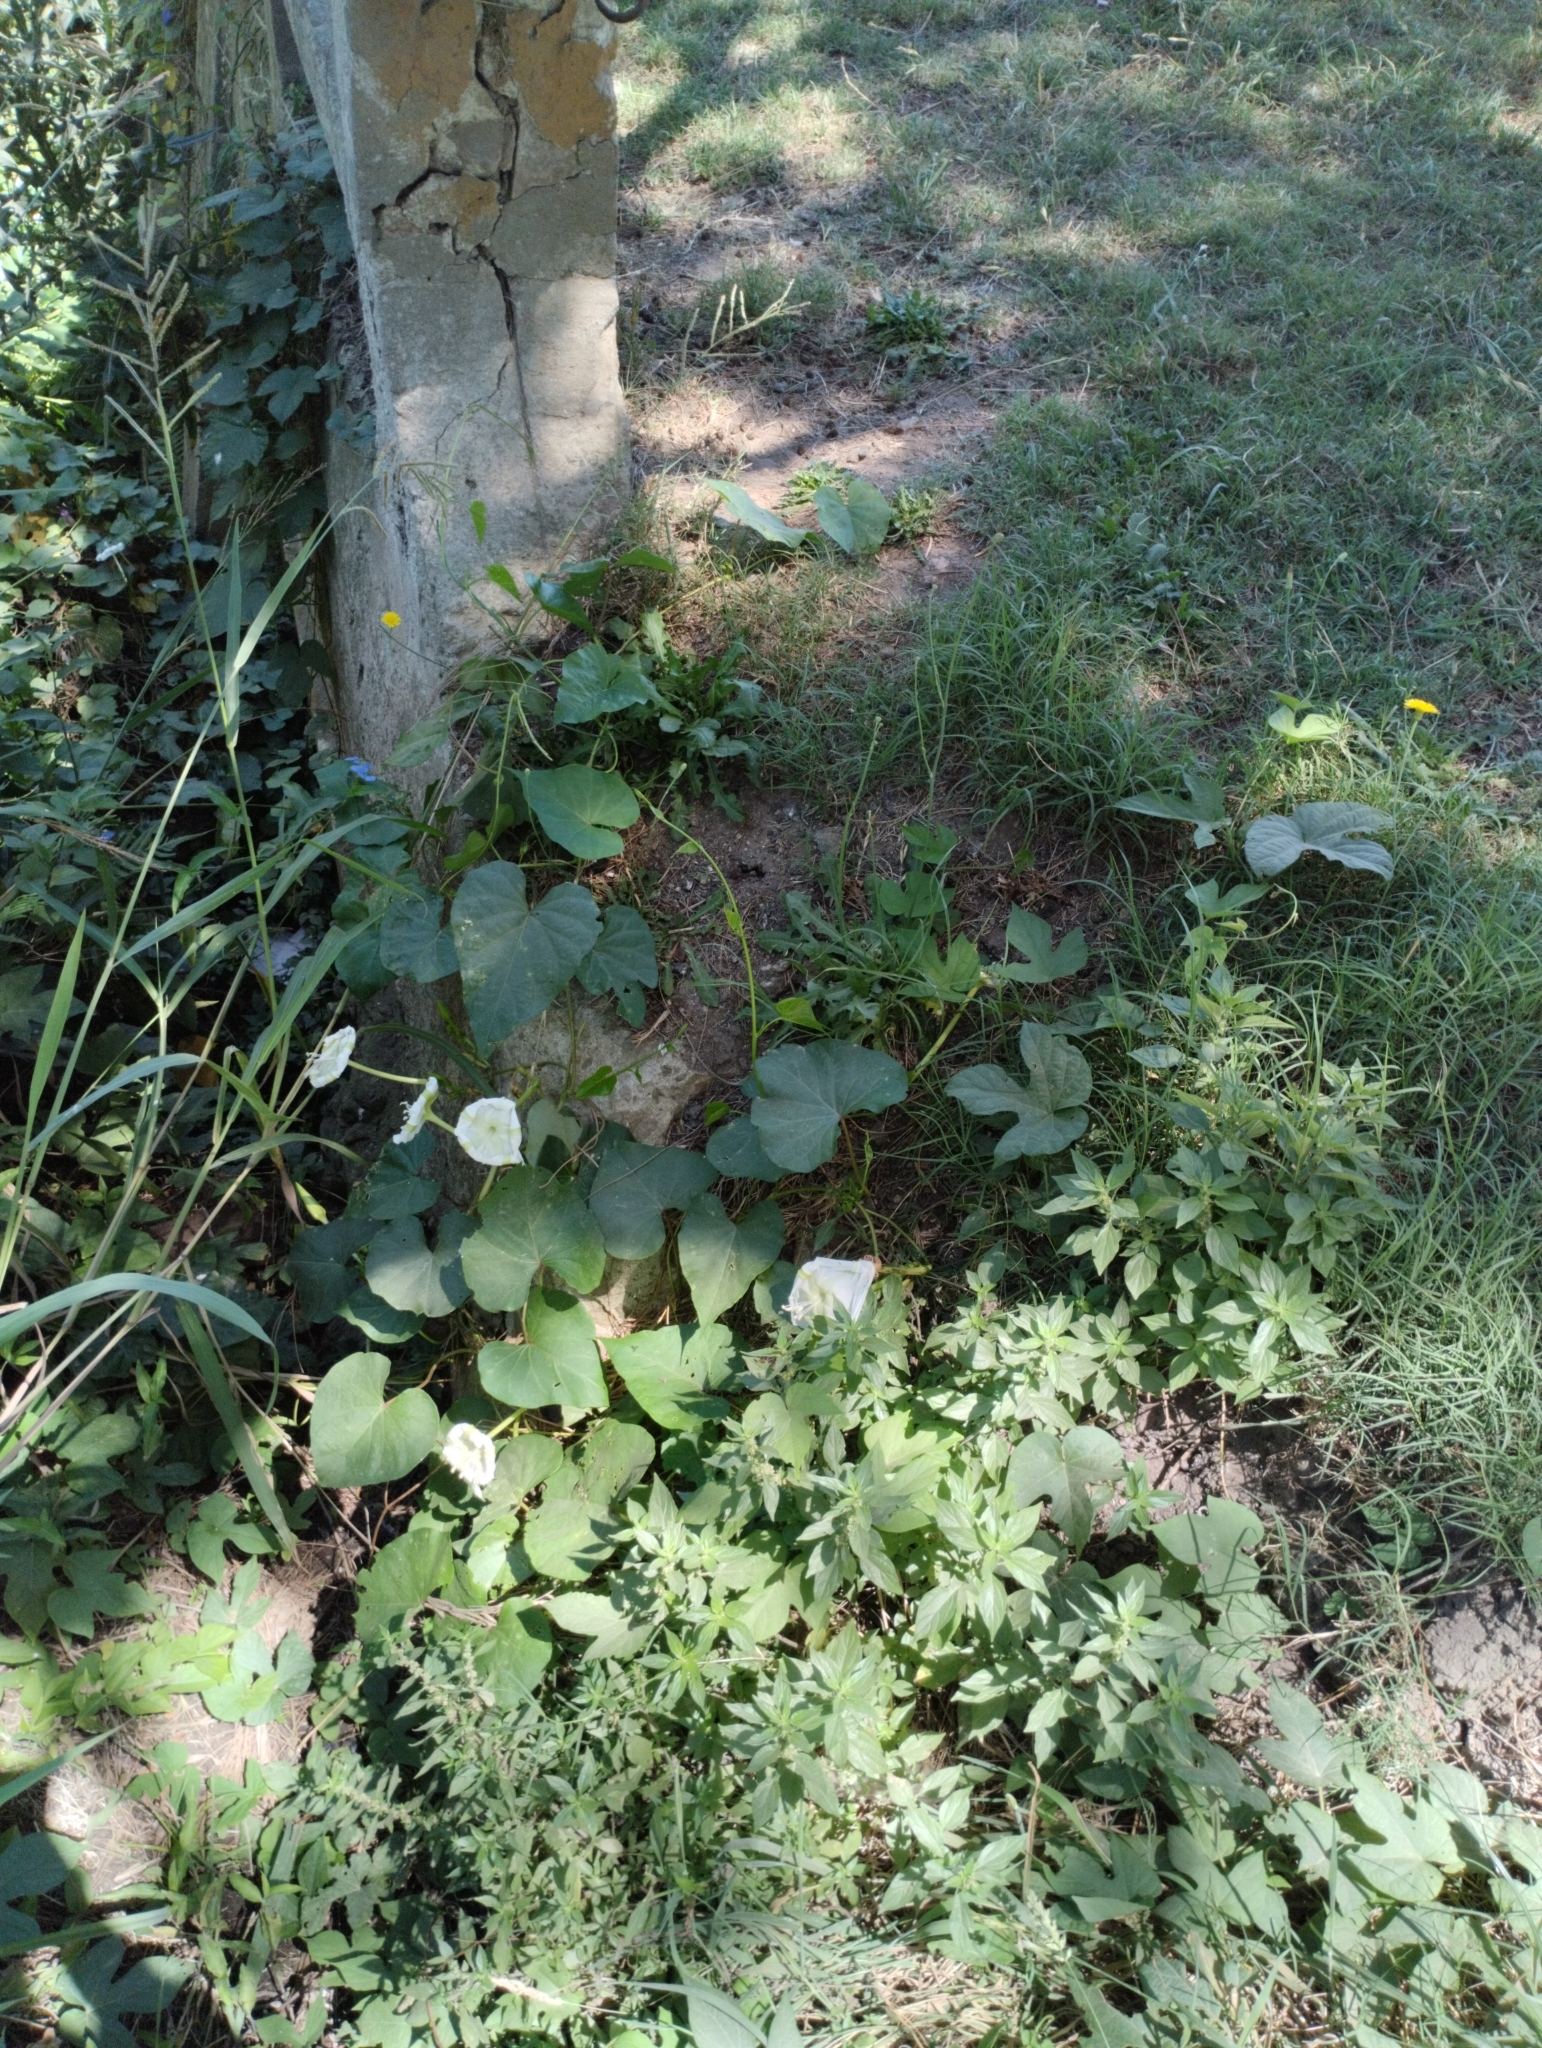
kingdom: Plantae
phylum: Tracheophyta
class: Magnoliopsida
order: Solanales
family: Convolvulaceae
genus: Ipomoea
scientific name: Ipomoea alba
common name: Moonflower
